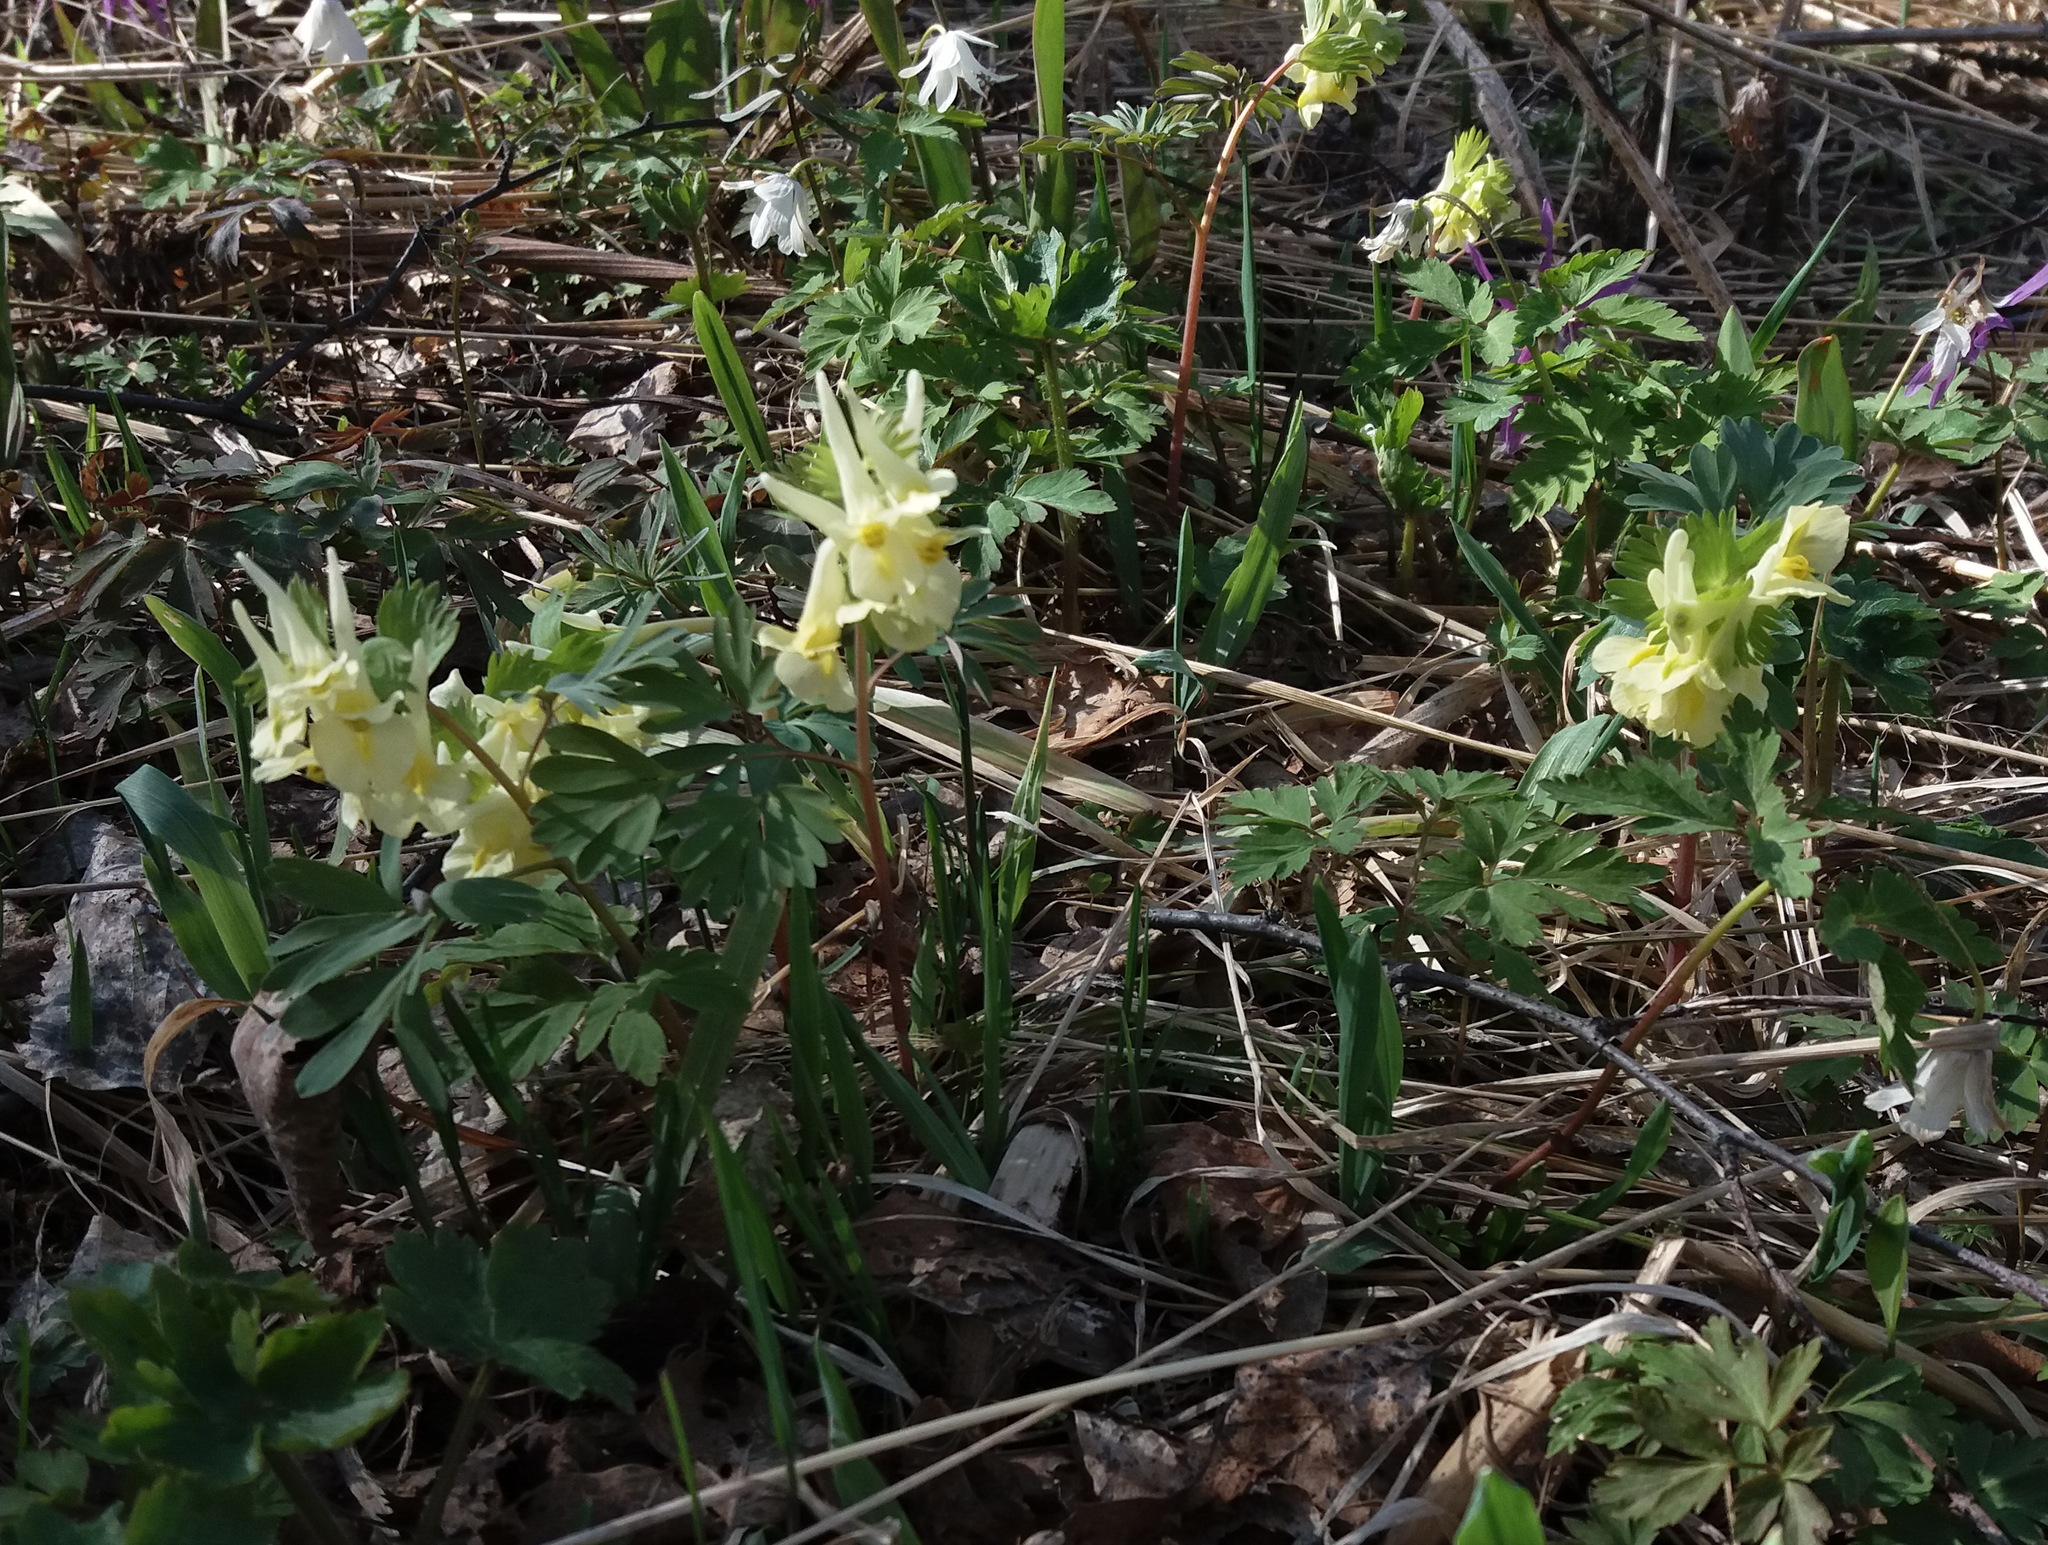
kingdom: Plantae
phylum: Tracheophyta
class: Magnoliopsida
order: Ranunculales
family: Papaveraceae
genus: Corydalis
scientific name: Corydalis bracteata
